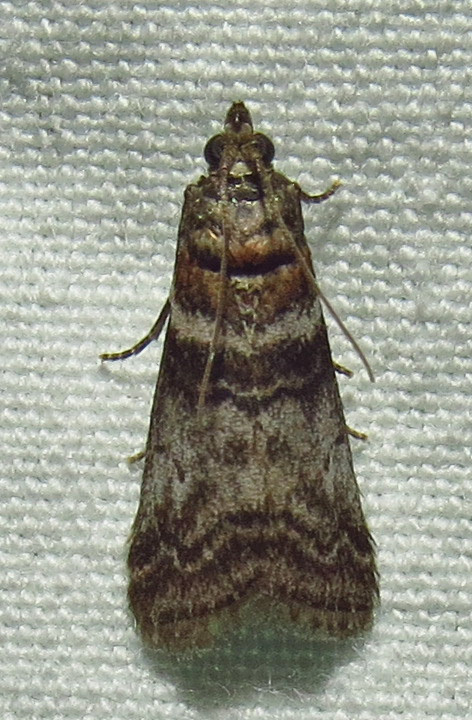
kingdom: Animalia
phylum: Arthropoda
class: Insecta
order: Lepidoptera
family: Pyralidae
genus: Sciota
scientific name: Sciota uvinella
